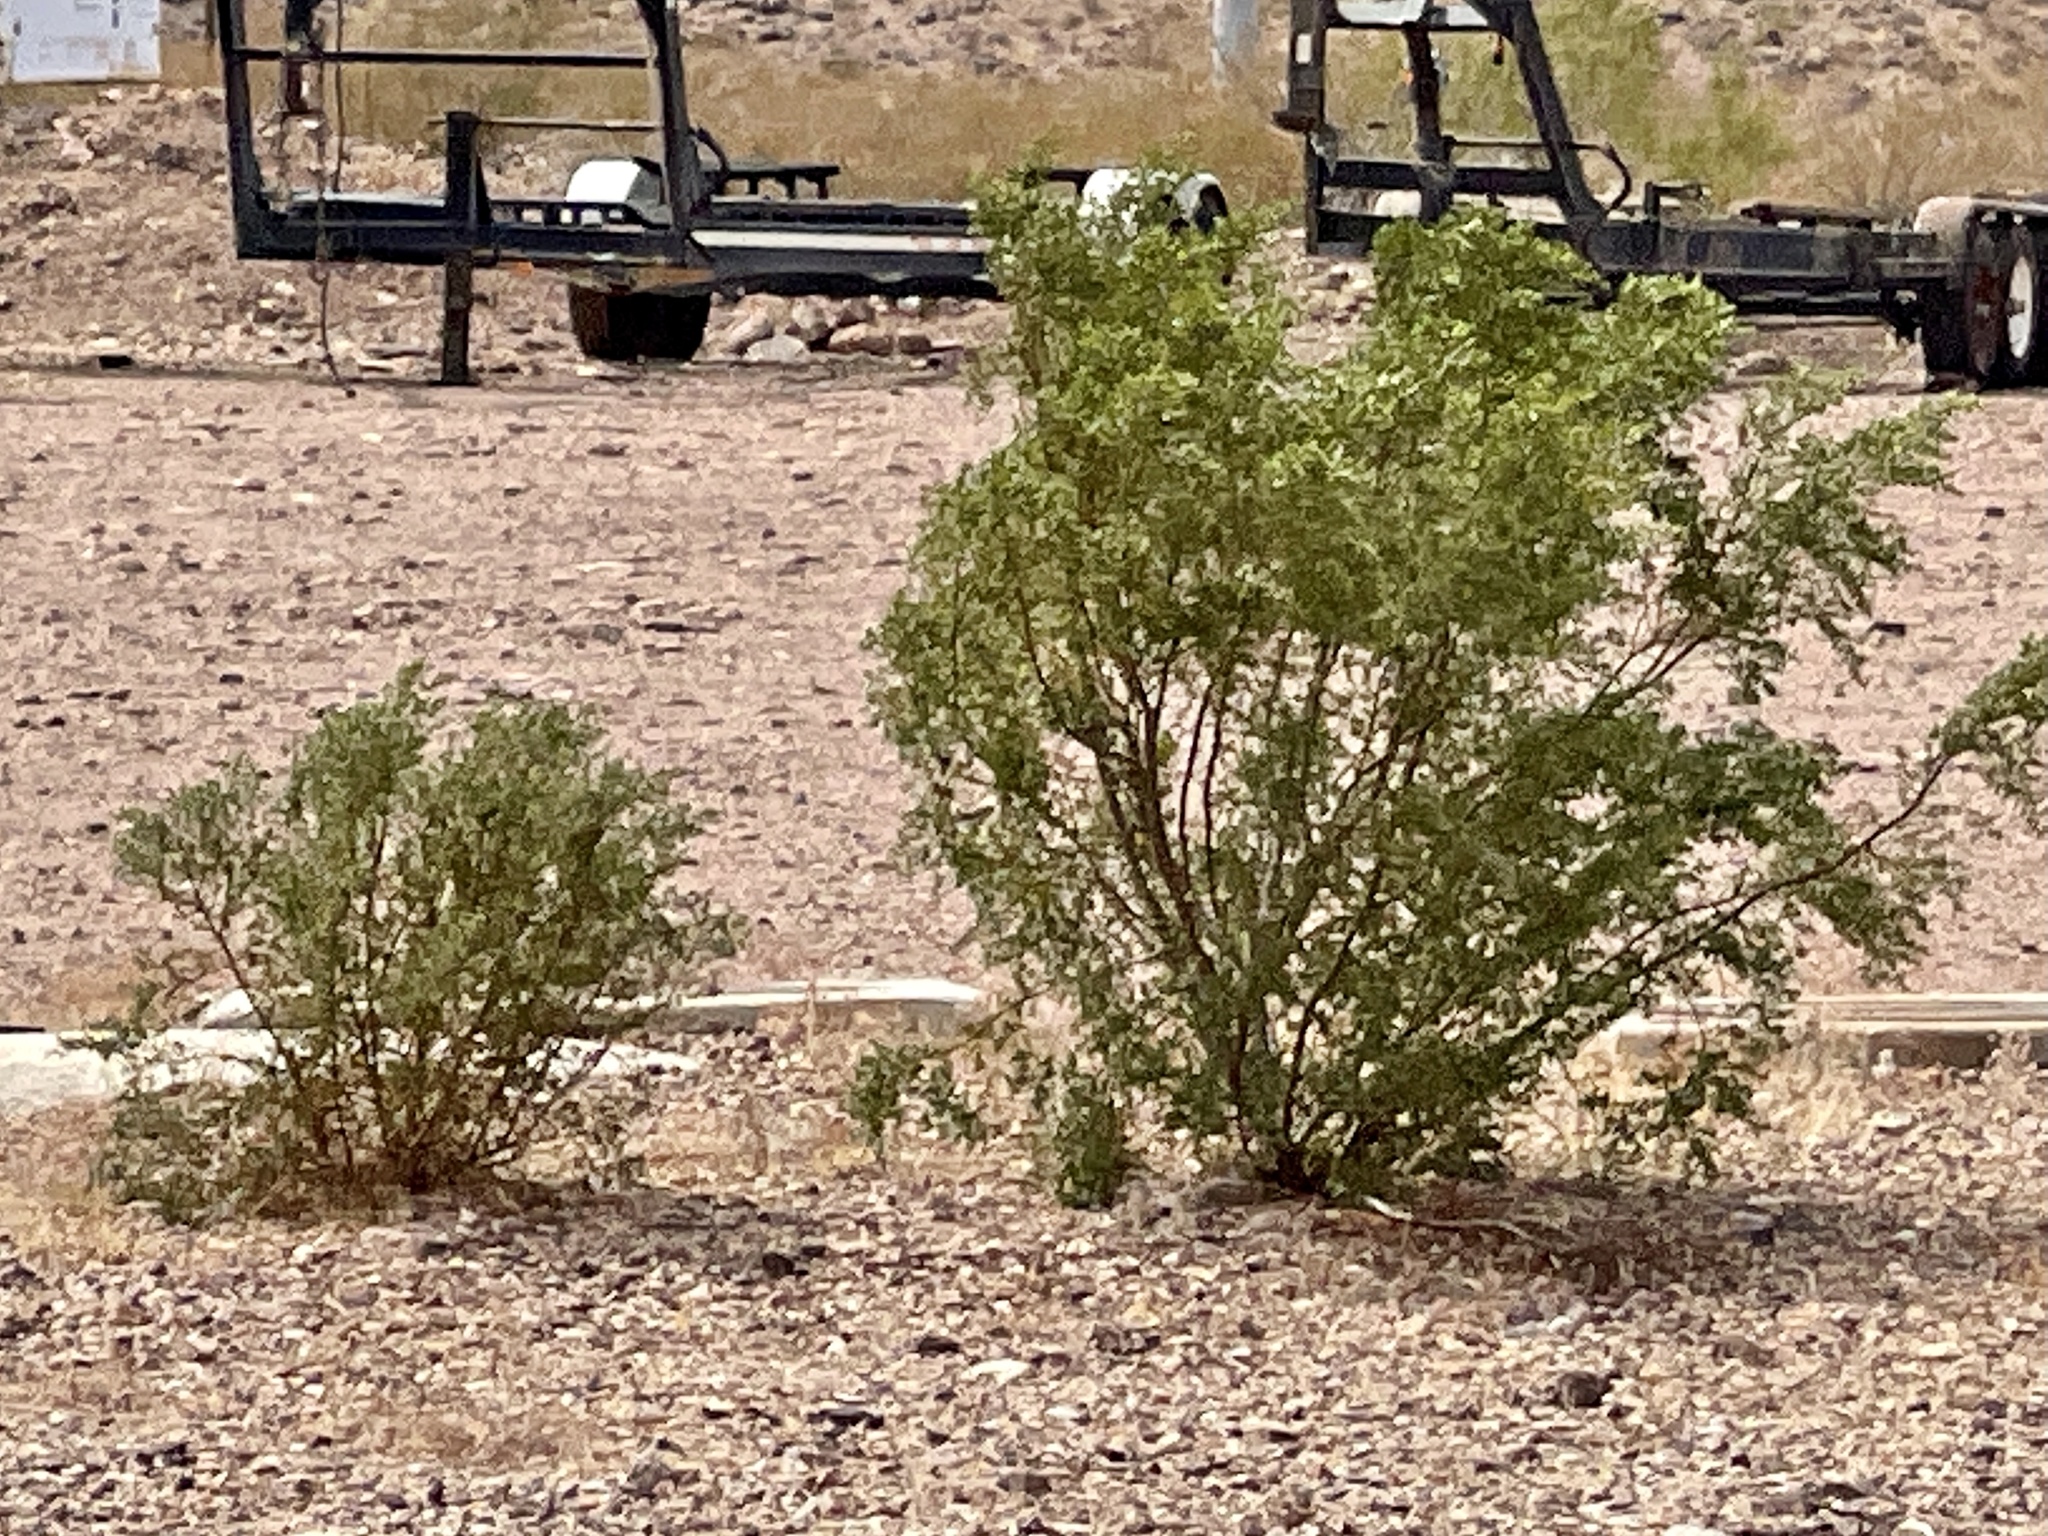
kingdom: Plantae
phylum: Tracheophyta
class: Magnoliopsida
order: Zygophyllales
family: Zygophyllaceae
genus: Larrea
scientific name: Larrea tridentata
